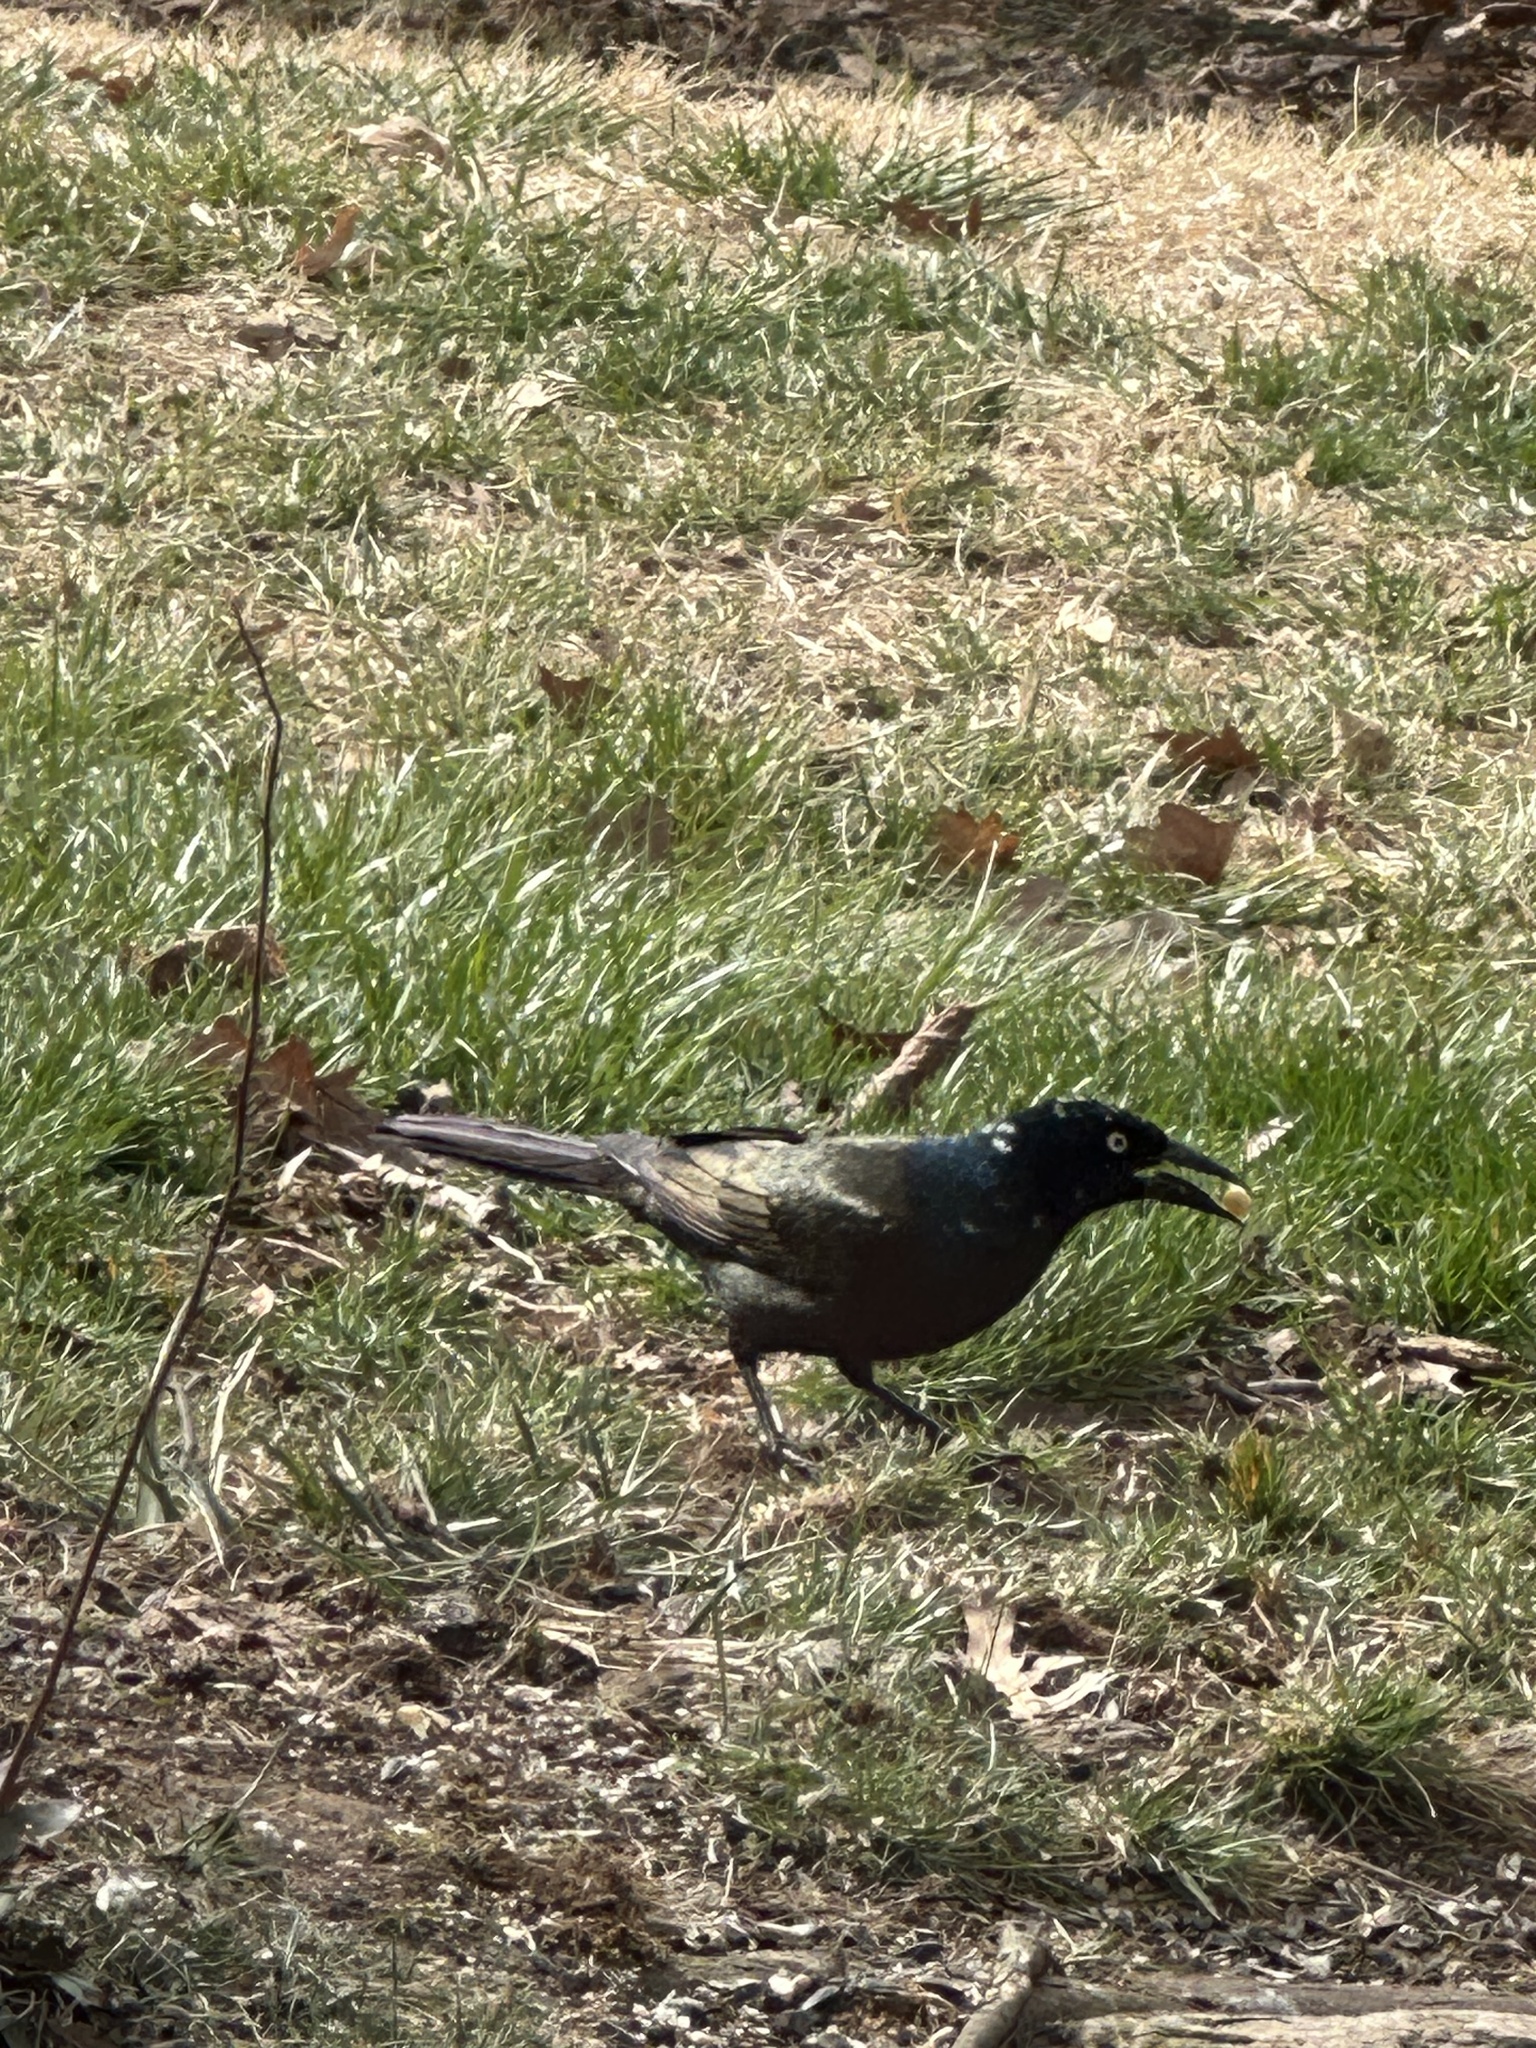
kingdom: Animalia
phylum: Chordata
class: Aves
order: Passeriformes
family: Icteridae
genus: Quiscalus
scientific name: Quiscalus quiscula
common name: Common grackle
